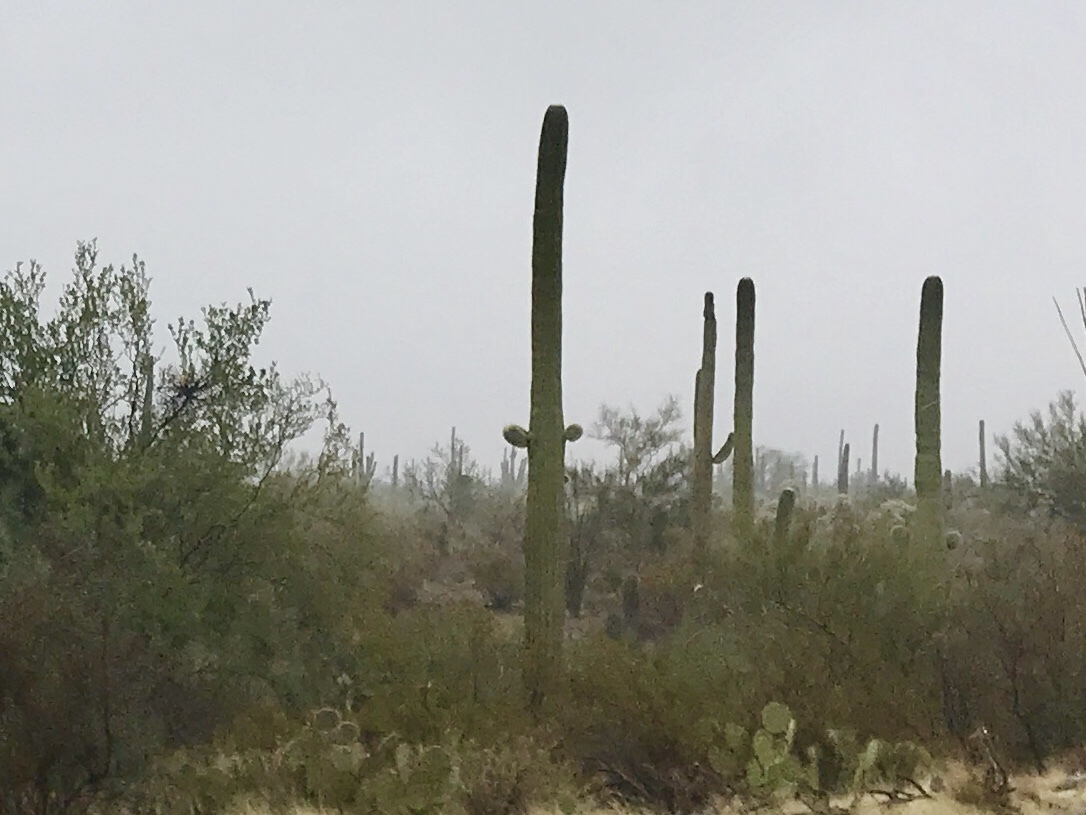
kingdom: Plantae
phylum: Tracheophyta
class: Magnoliopsida
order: Caryophyllales
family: Cactaceae
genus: Carnegiea
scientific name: Carnegiea gigantea
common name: Saguaro
